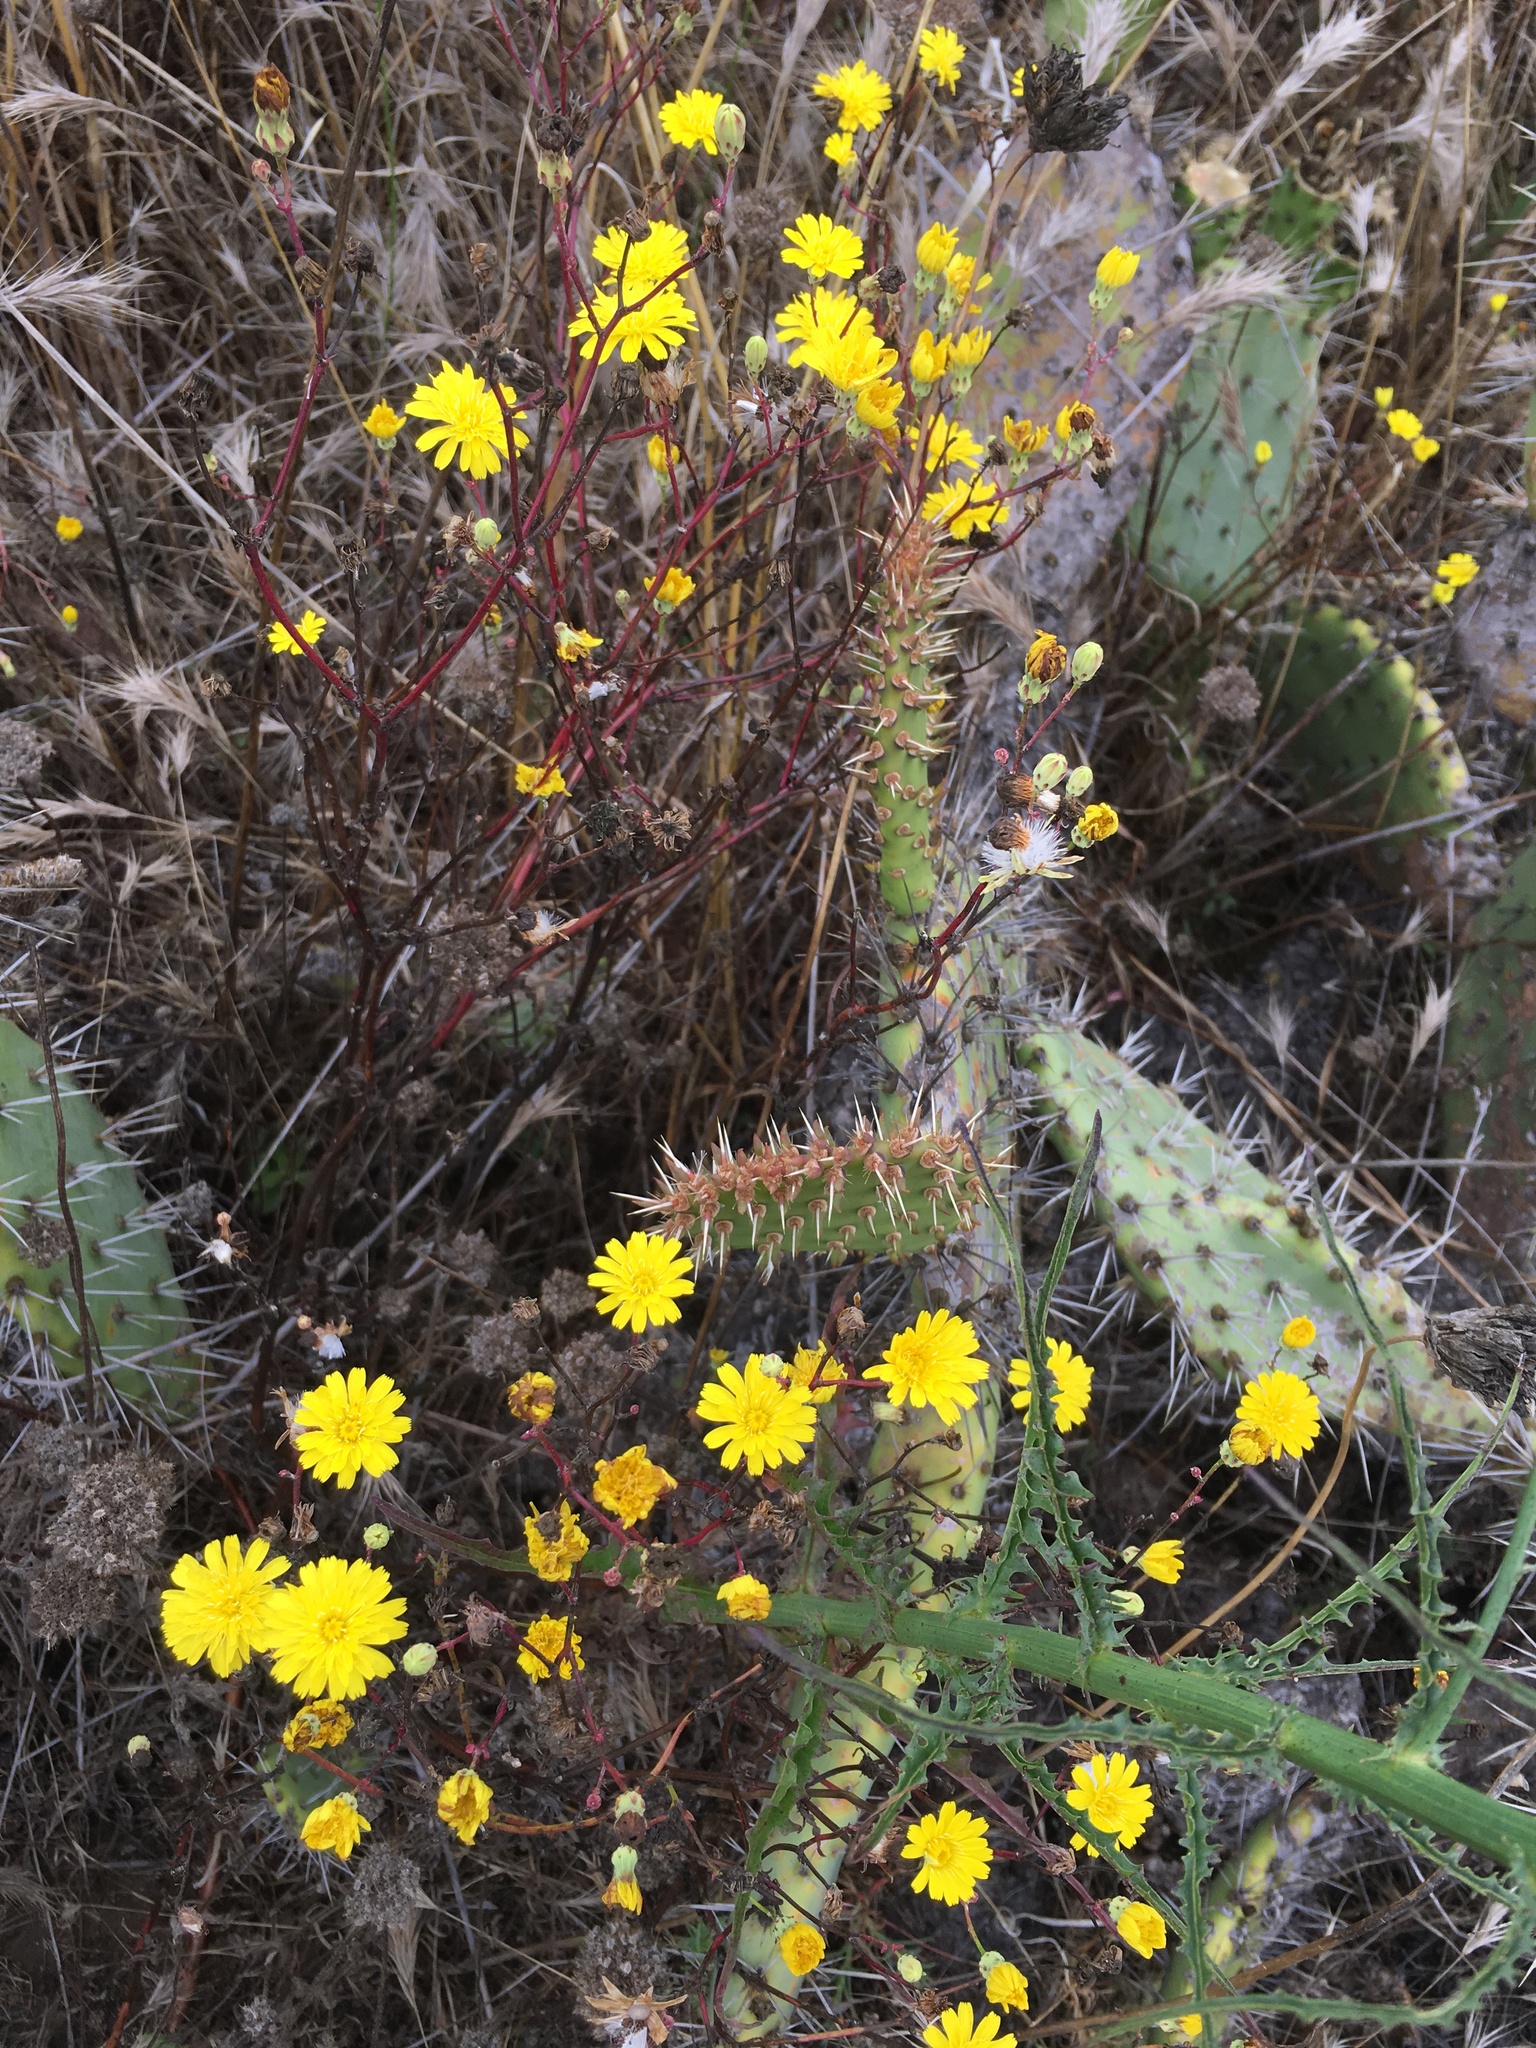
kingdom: Plantae
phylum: Tracheophyta
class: Magnoliopsida
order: Asterales
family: Asteraceae
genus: Malacothrix
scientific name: Malacothrix foliosa
